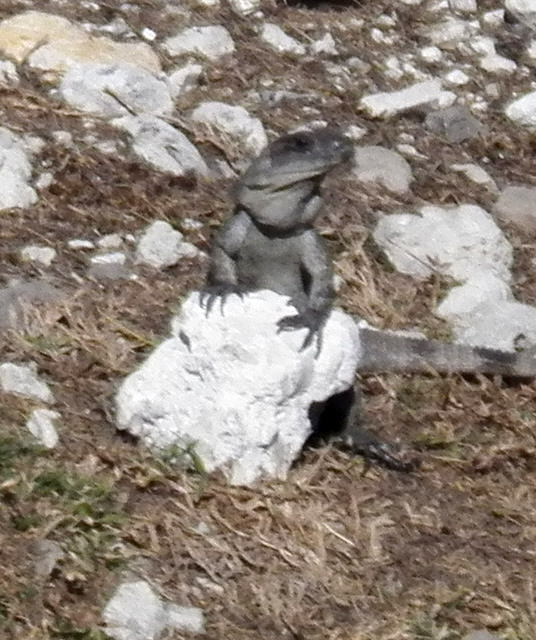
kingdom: Animalia
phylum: Chordata
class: Squamata
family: Iguanidae
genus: Ctenosaura
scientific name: Ctenosaura similis
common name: Black spiny-tailed iguana
